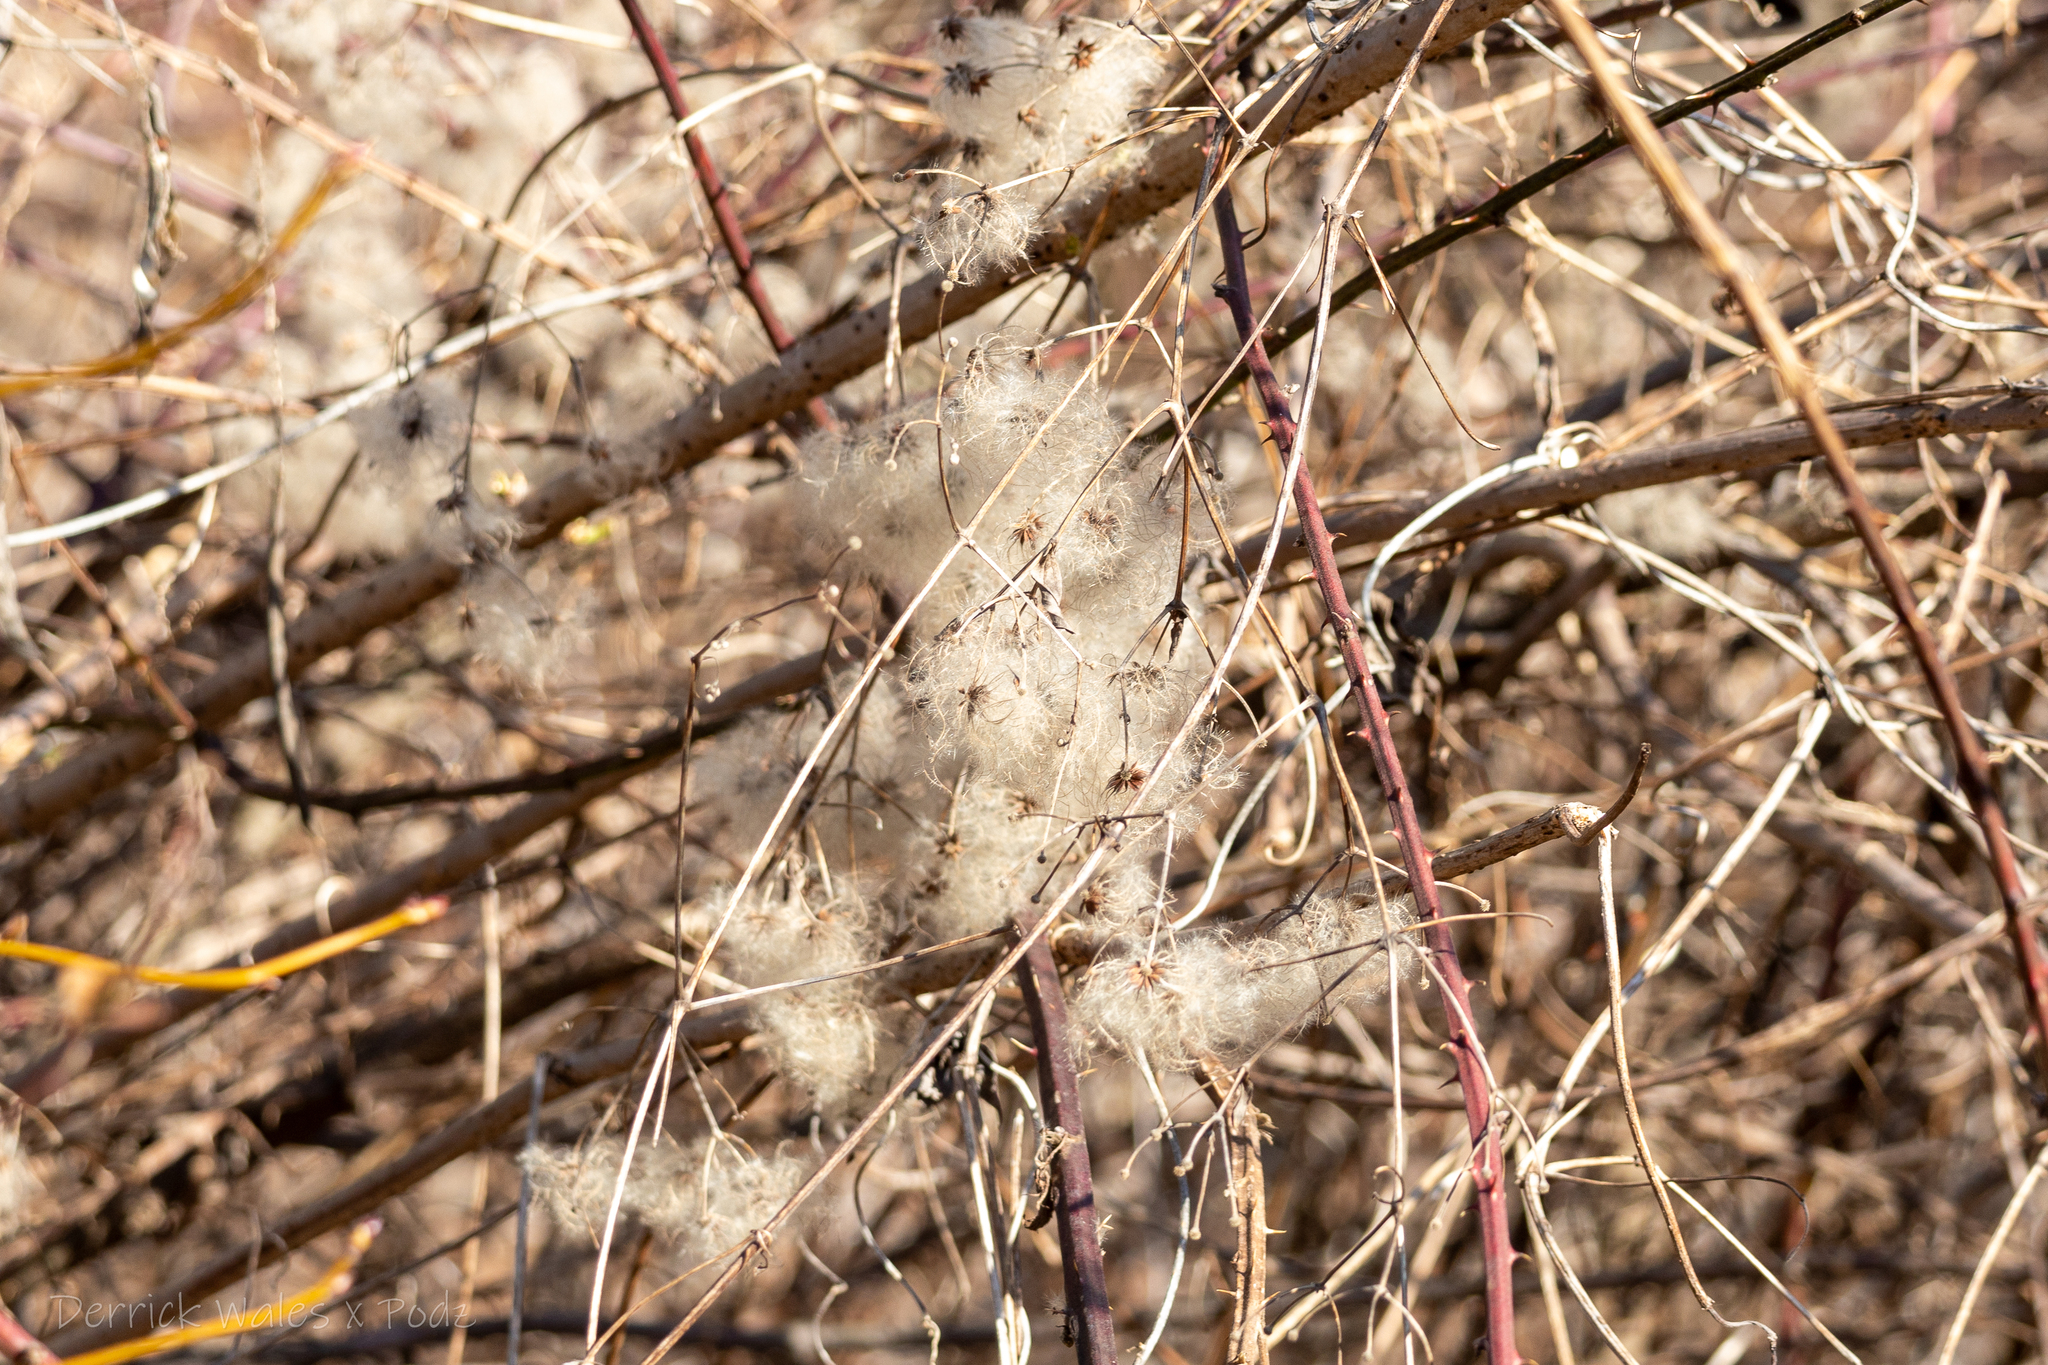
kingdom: Plantae
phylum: Tracheophyta
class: Magnoliopsida
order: Ranunculales
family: Ranunculaceae
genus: Clematis
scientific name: Clematis virginiana
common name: Virgin's-bower
